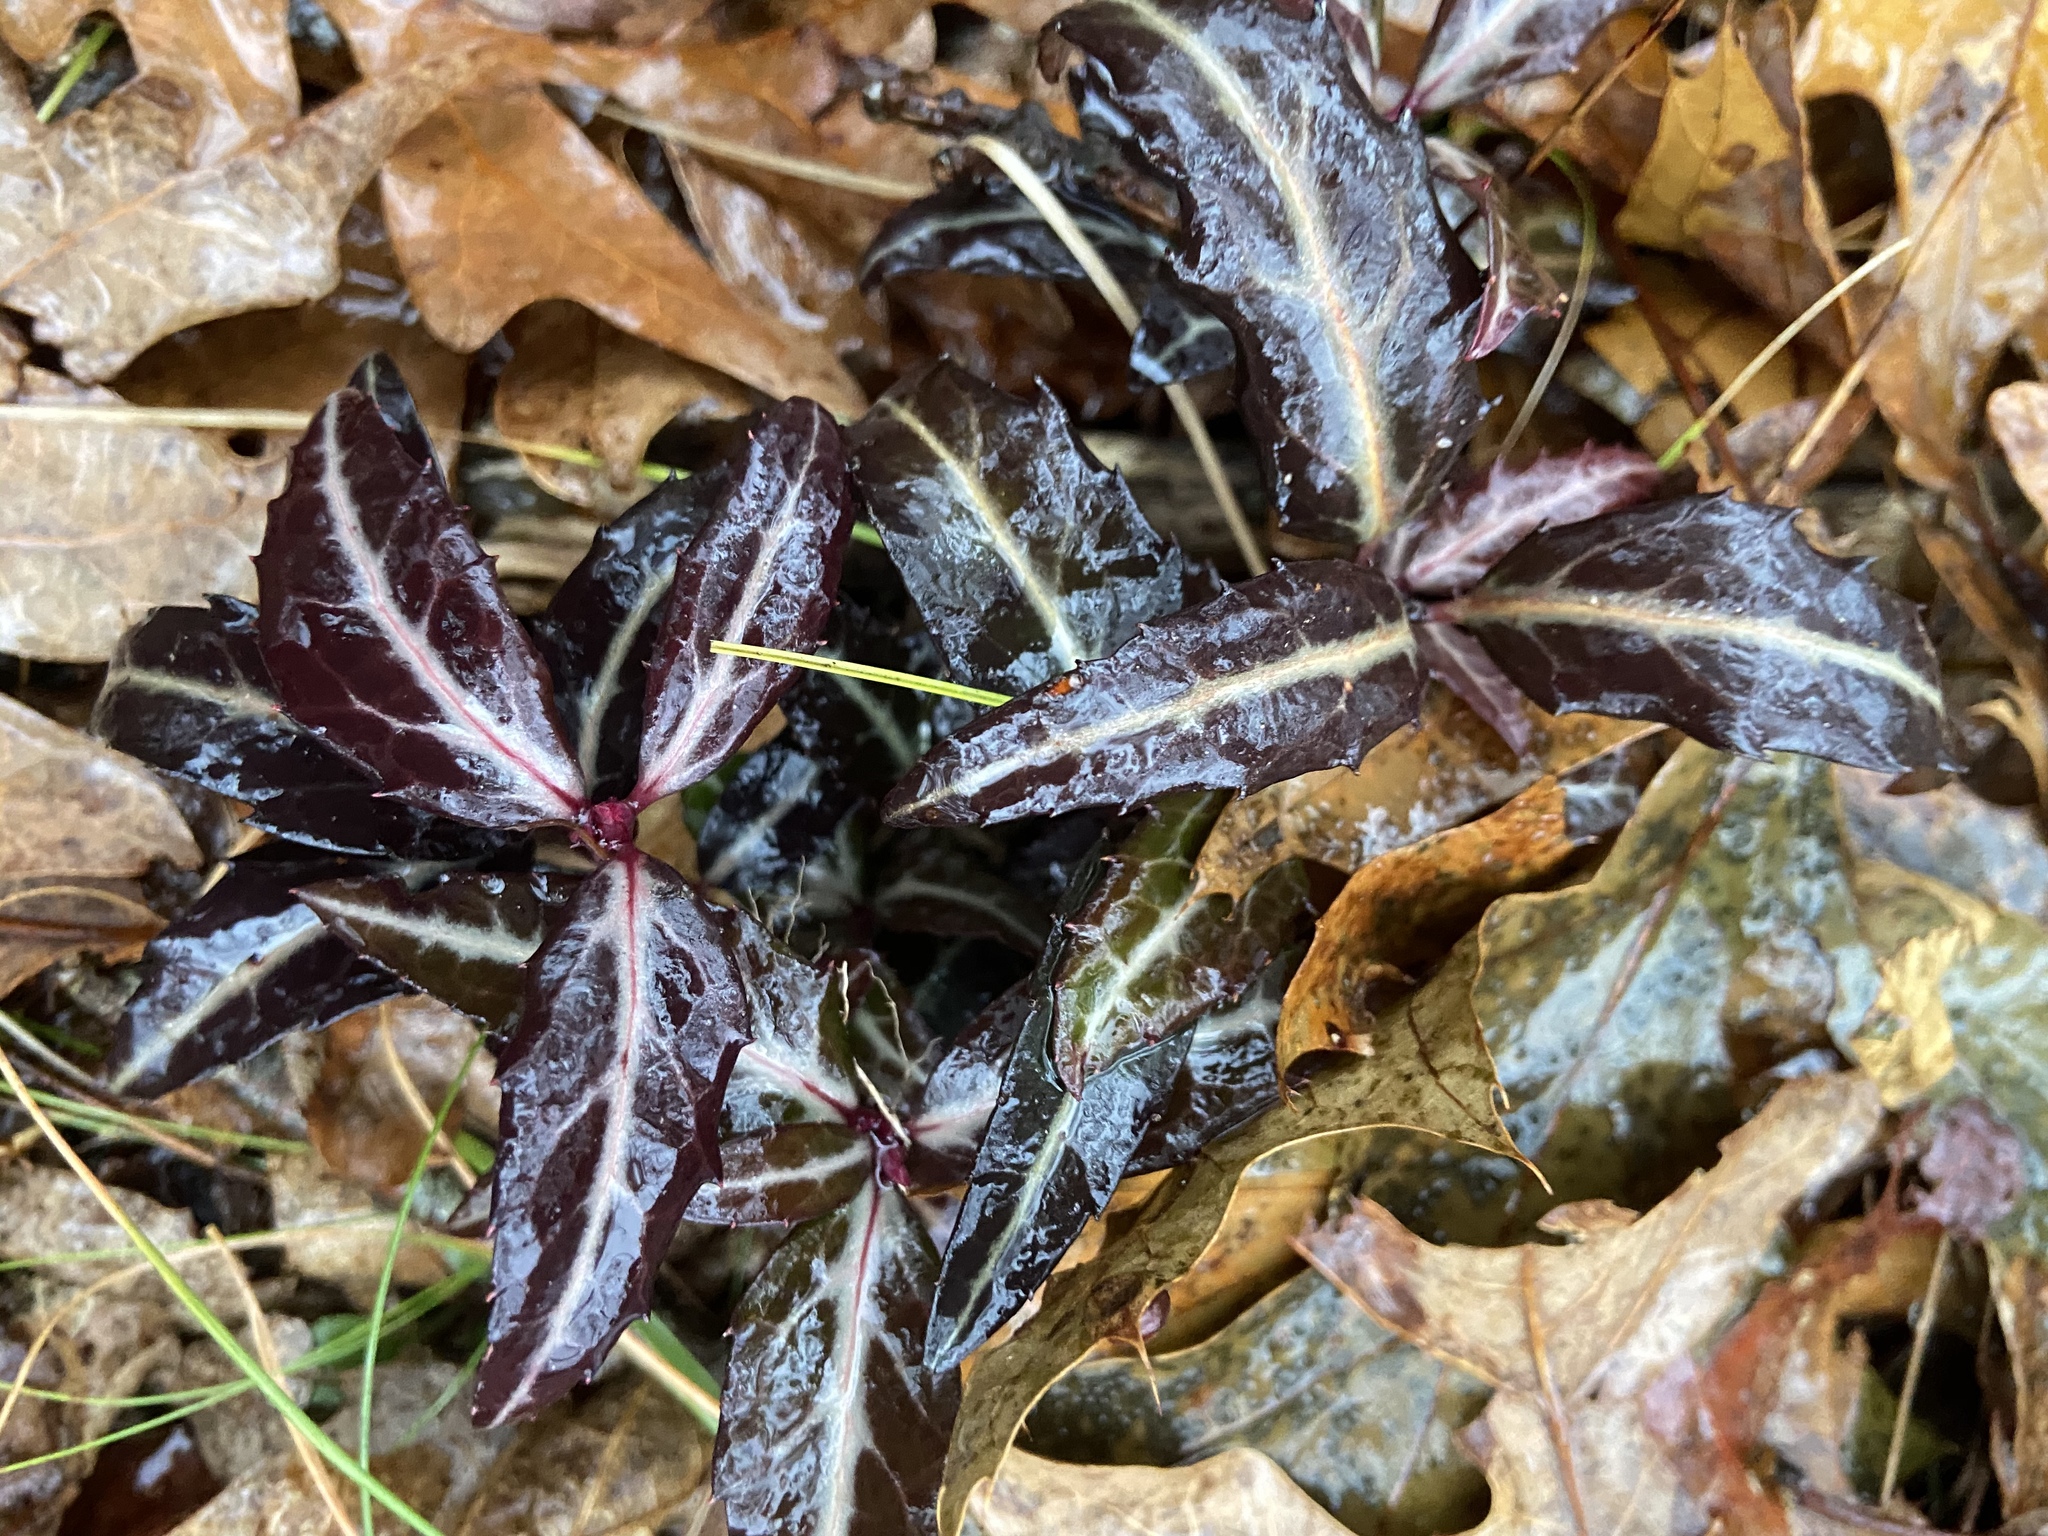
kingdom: Plantae
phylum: Tracheophyta
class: Magnoliopsida
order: Ericales
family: Ericaceae
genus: Chimaphila
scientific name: Chimaphila maculata
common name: Spotted pipsissewa
